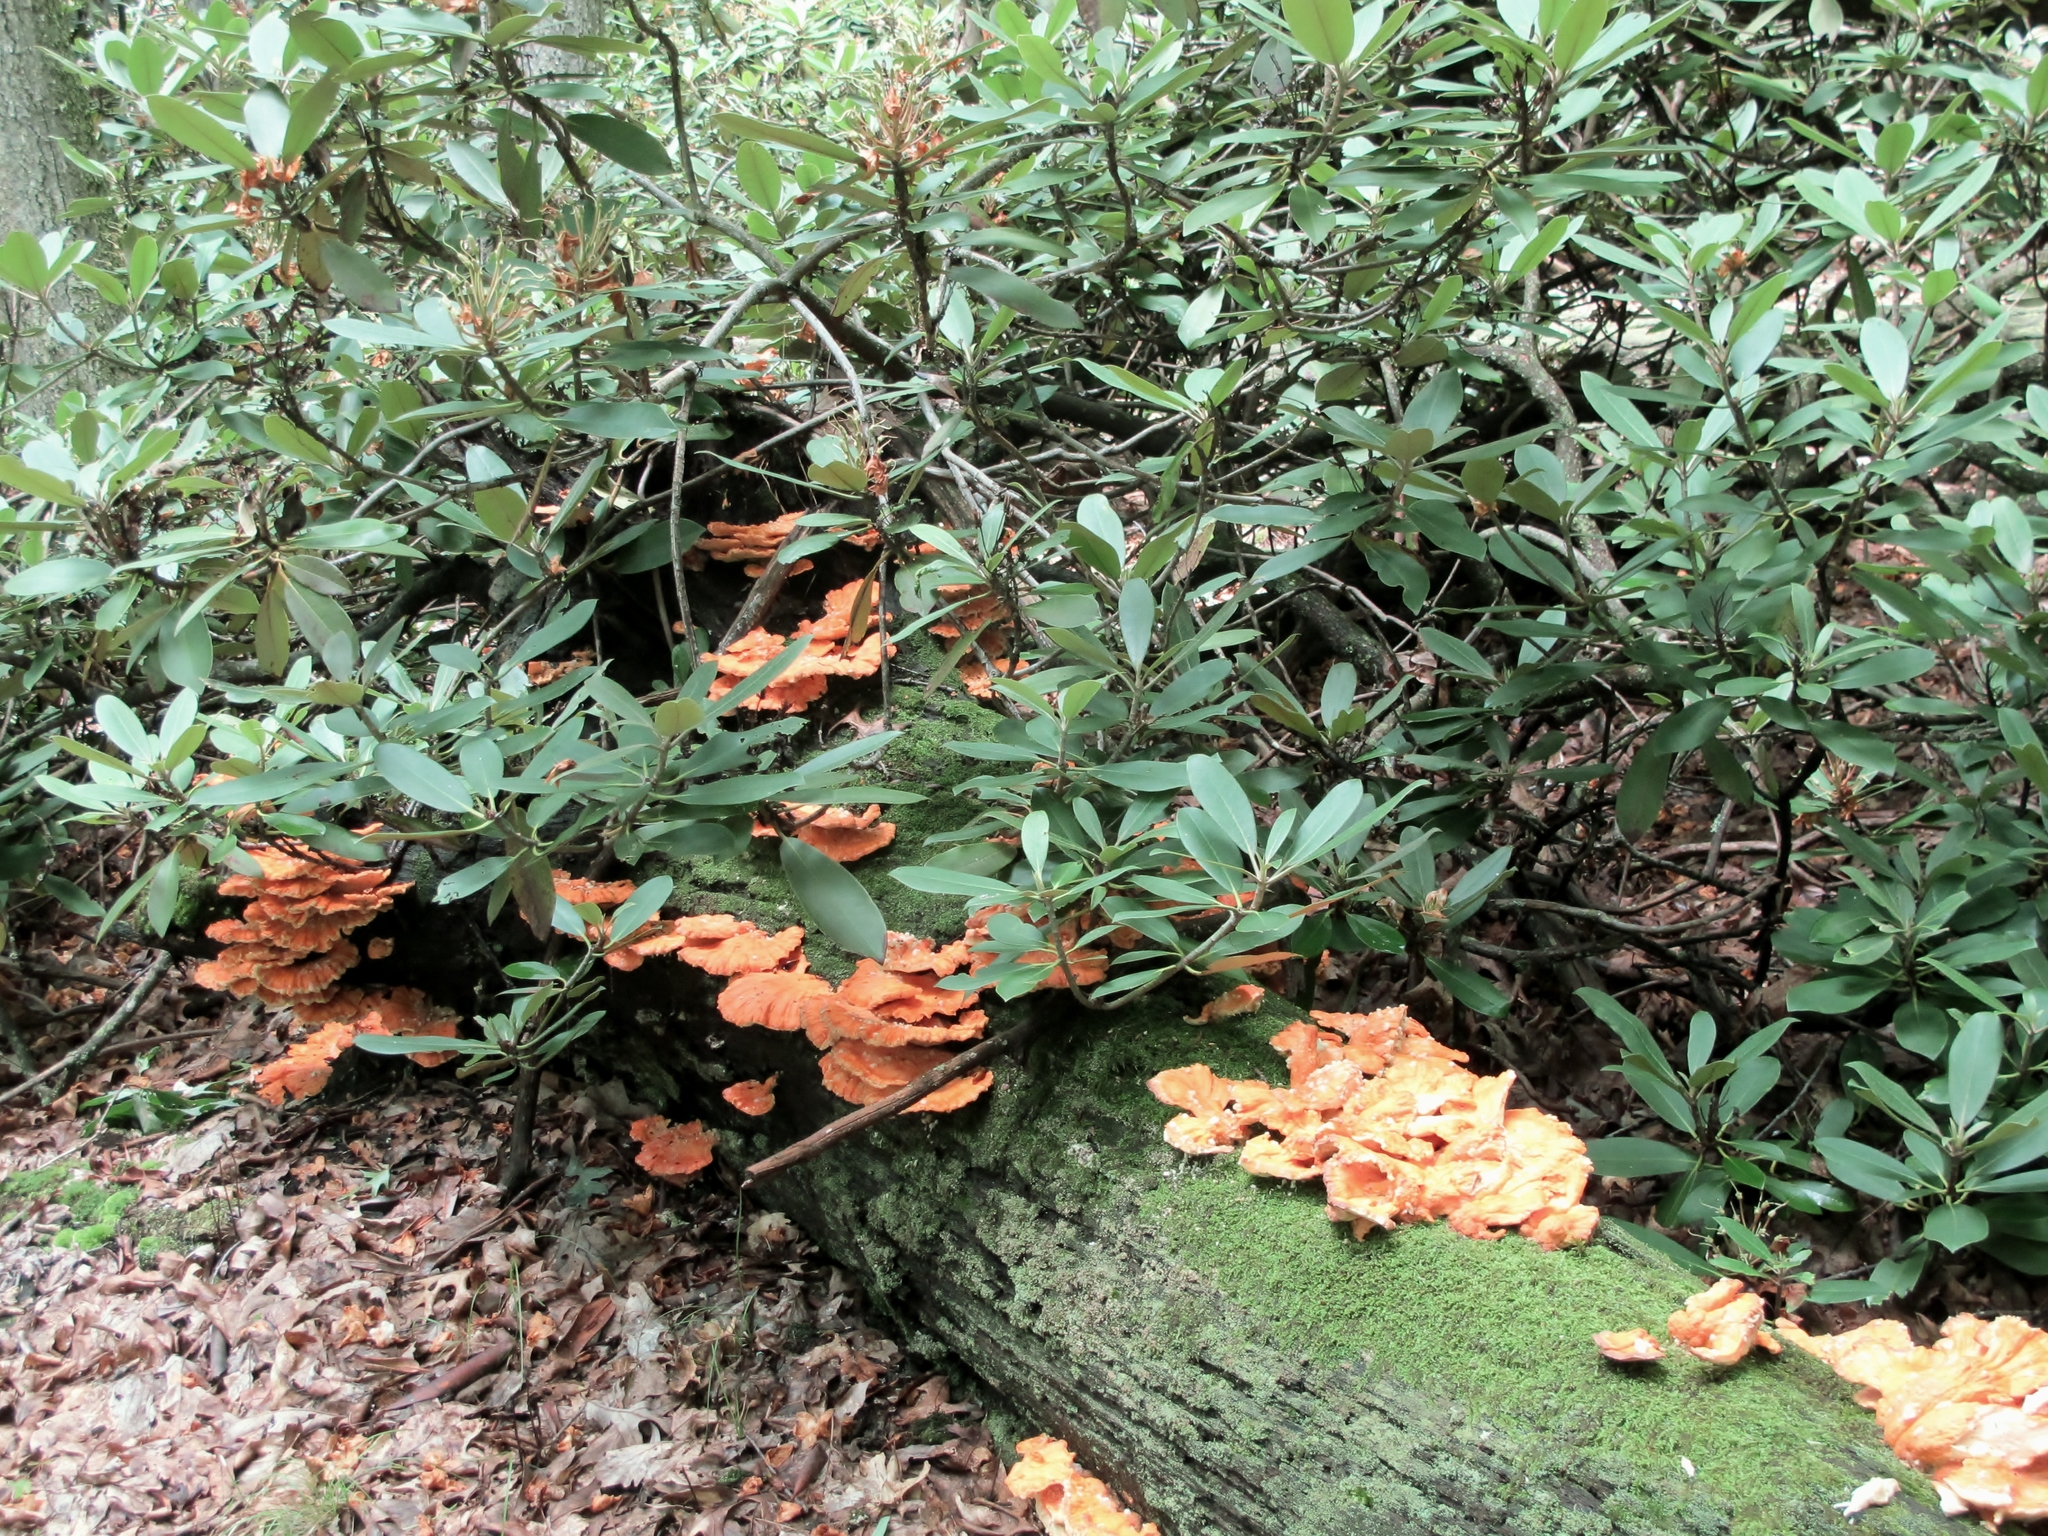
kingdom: Fungi
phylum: Basidiomycota
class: Agaricomycetes
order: Polyporales
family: Laetiporaceae
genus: Laetiporus
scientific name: Laetiporus sulphureus
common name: Chicken of the woods
